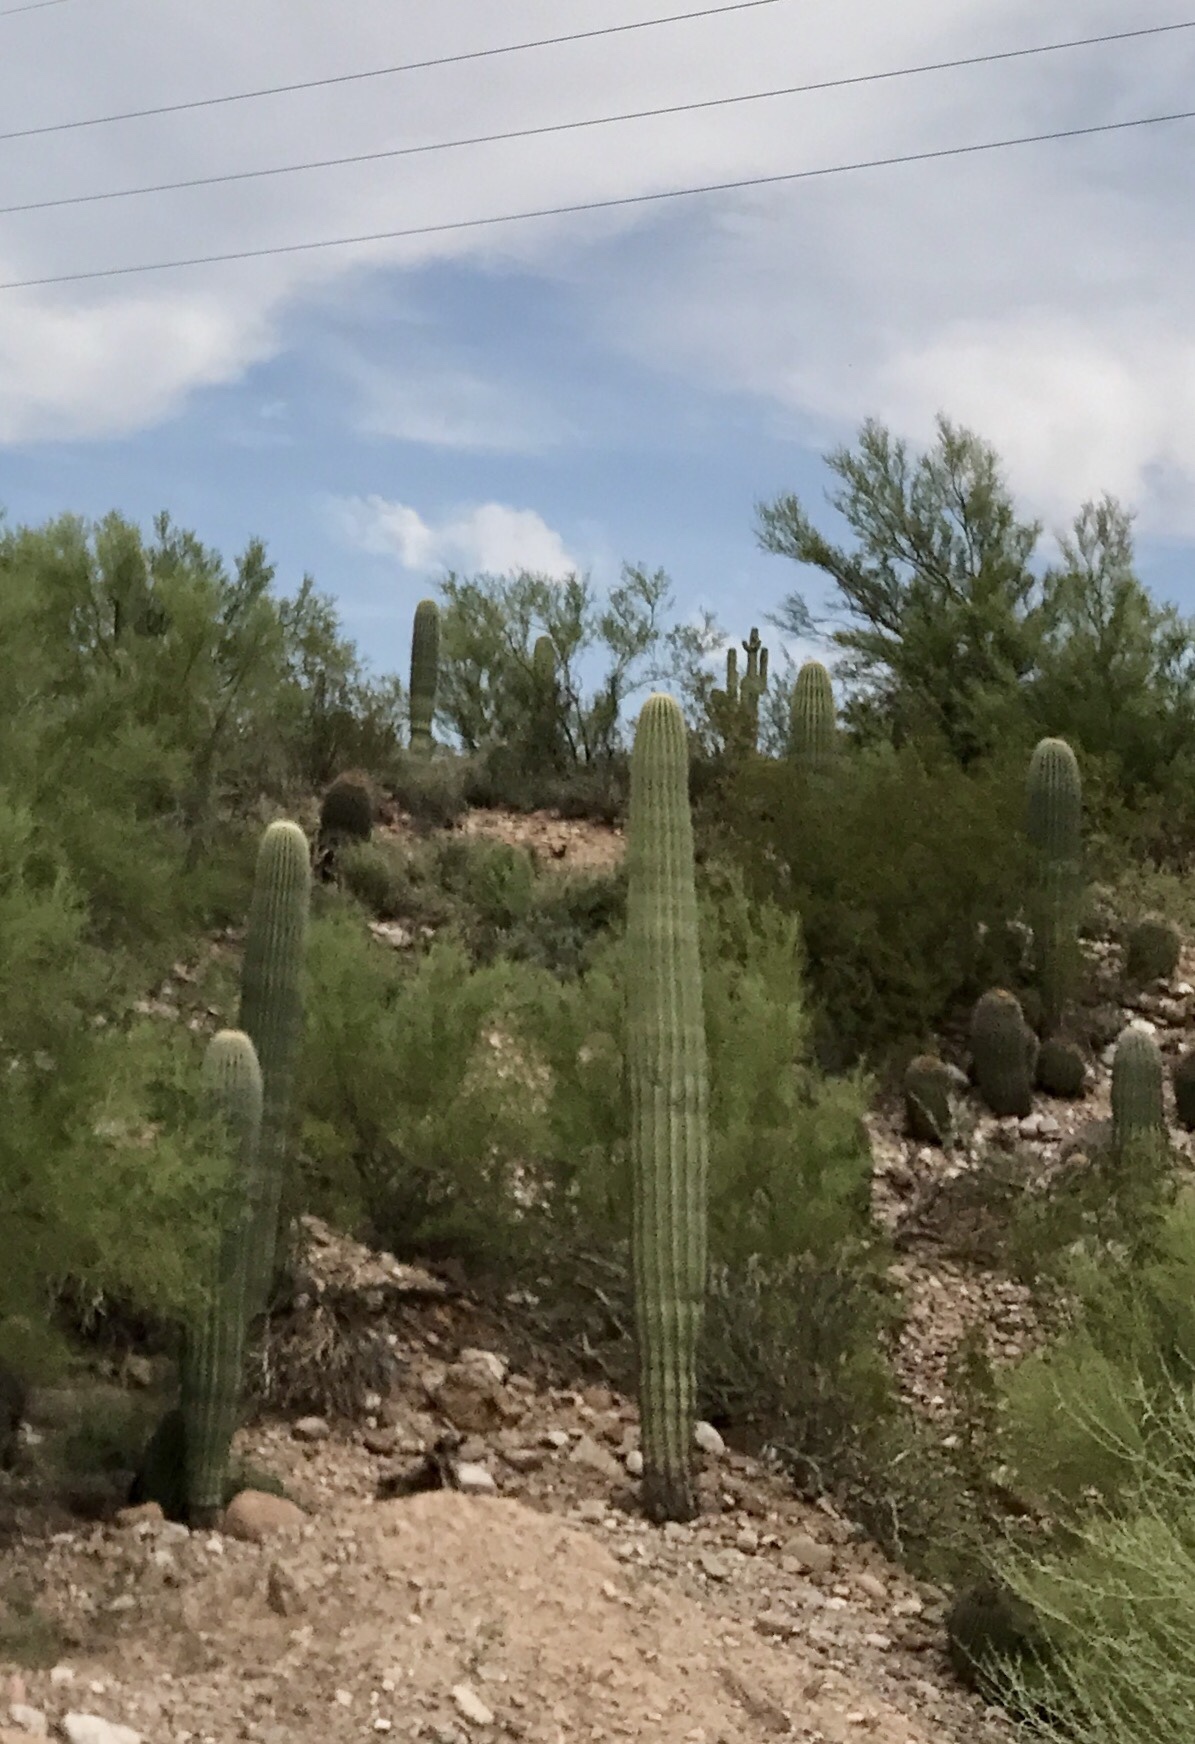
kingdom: Plantae
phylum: Tracheophyta
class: Magnoliopsida
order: Caryophyllales
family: Cactaceae
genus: Carnegiea
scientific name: Carnegiea gigantea
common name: Saguaro
